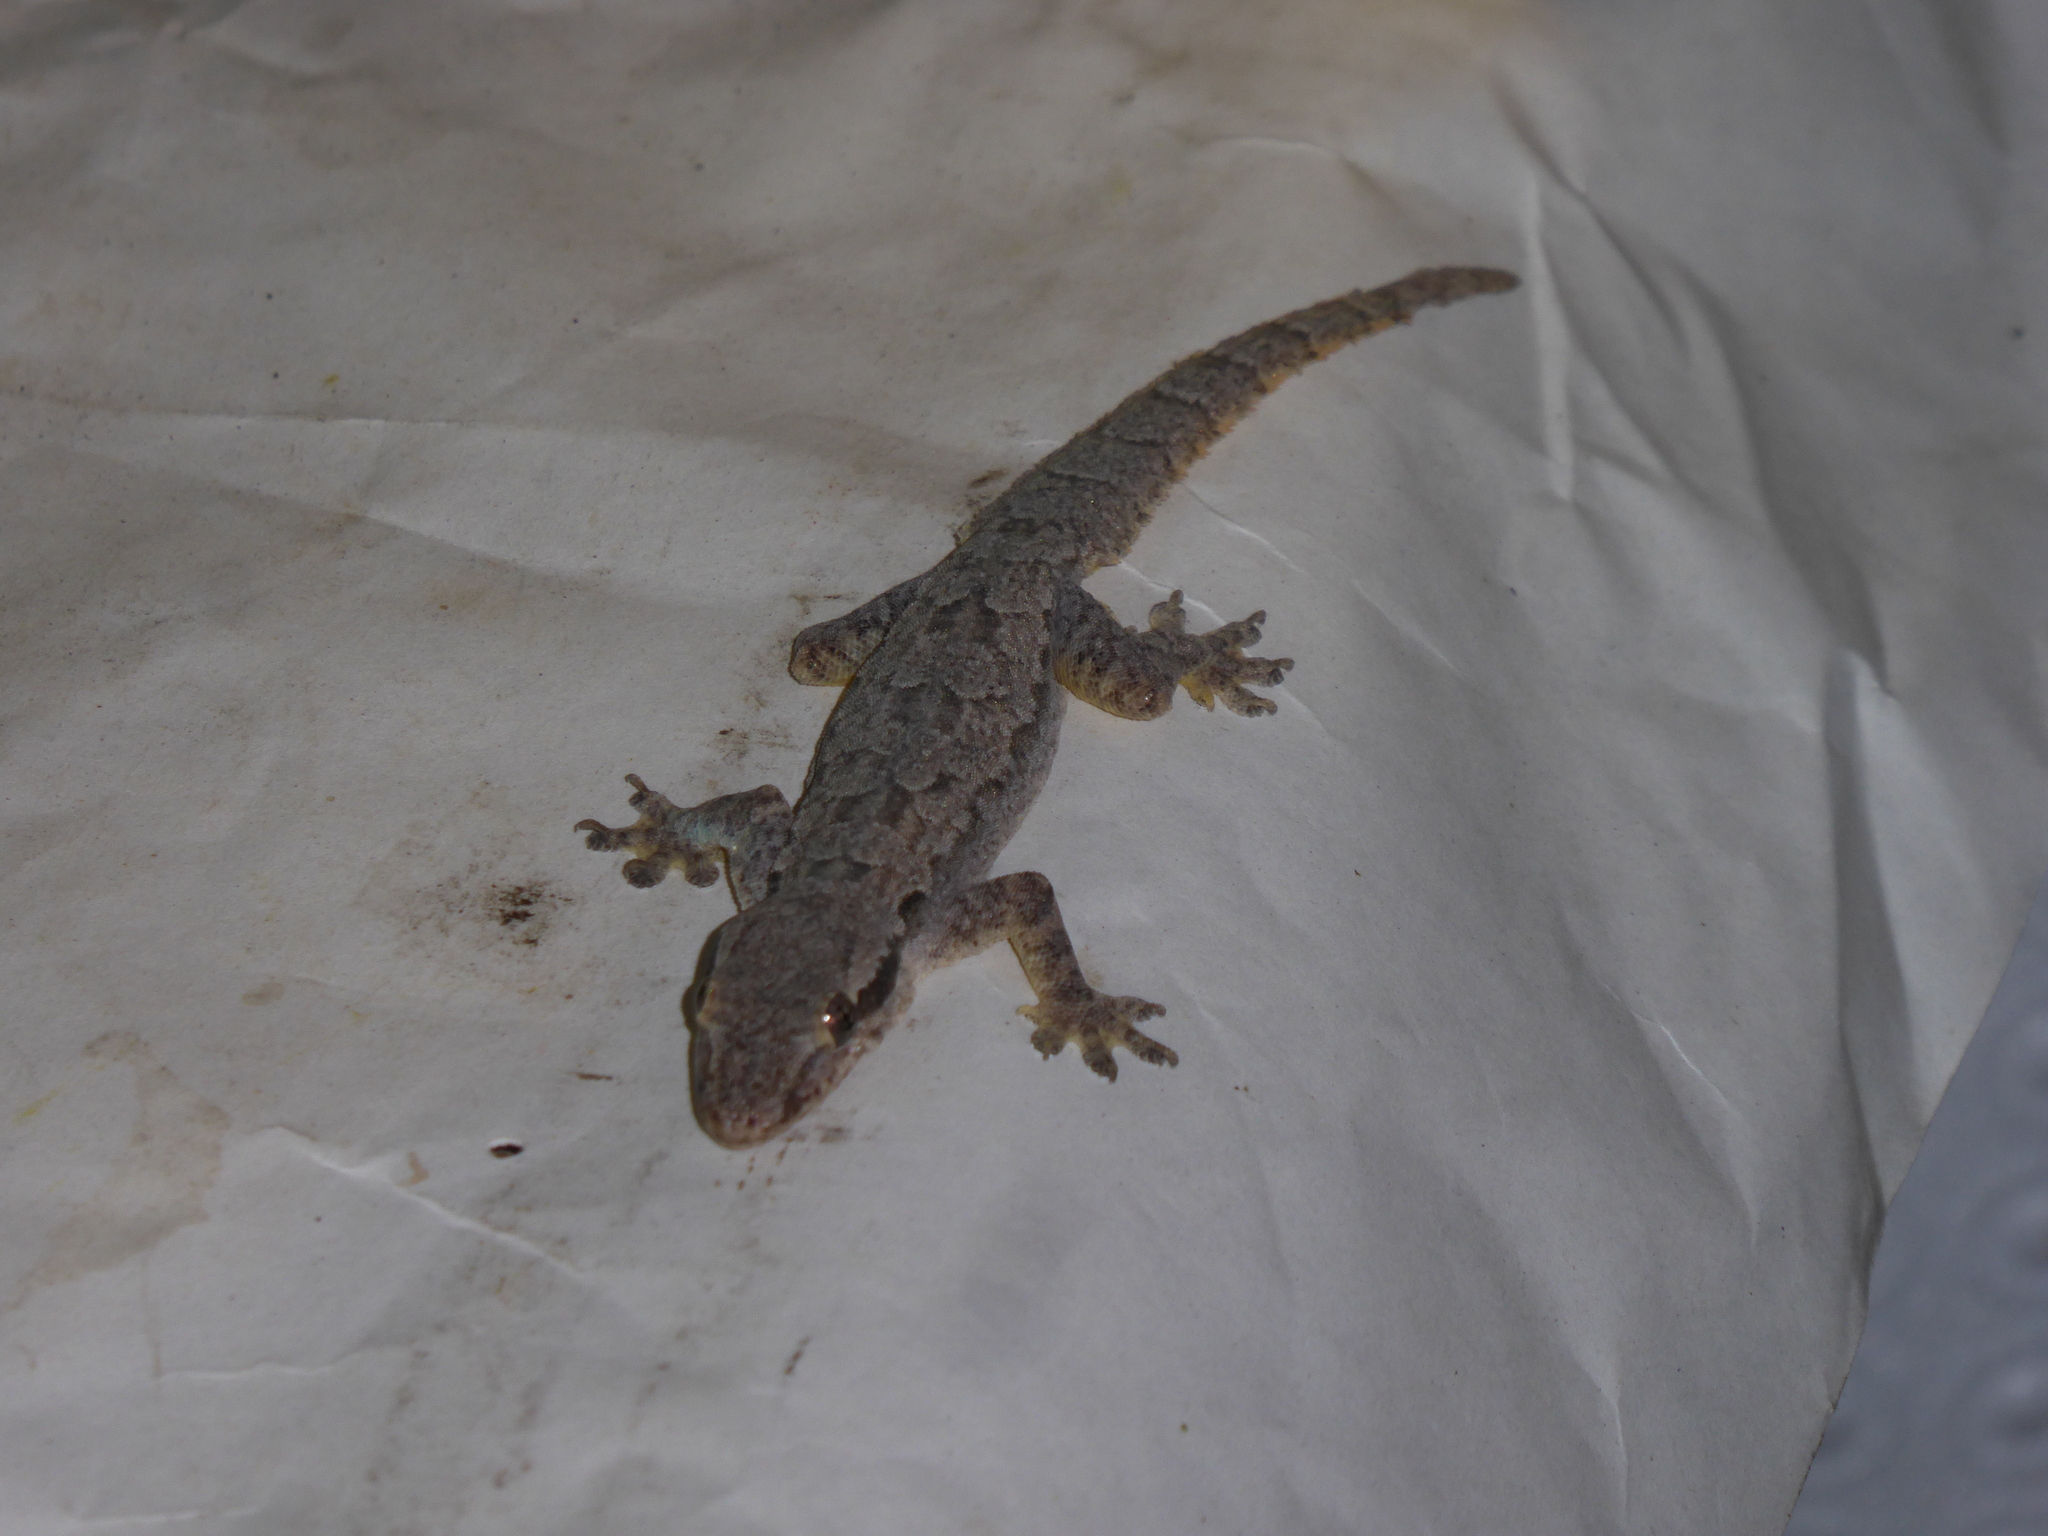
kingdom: Animalia
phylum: Chordata
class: Squamata
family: Gekkonidae
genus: Hemidactylus
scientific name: Hemidactylus platyurus
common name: Flat-tailed house gecko
